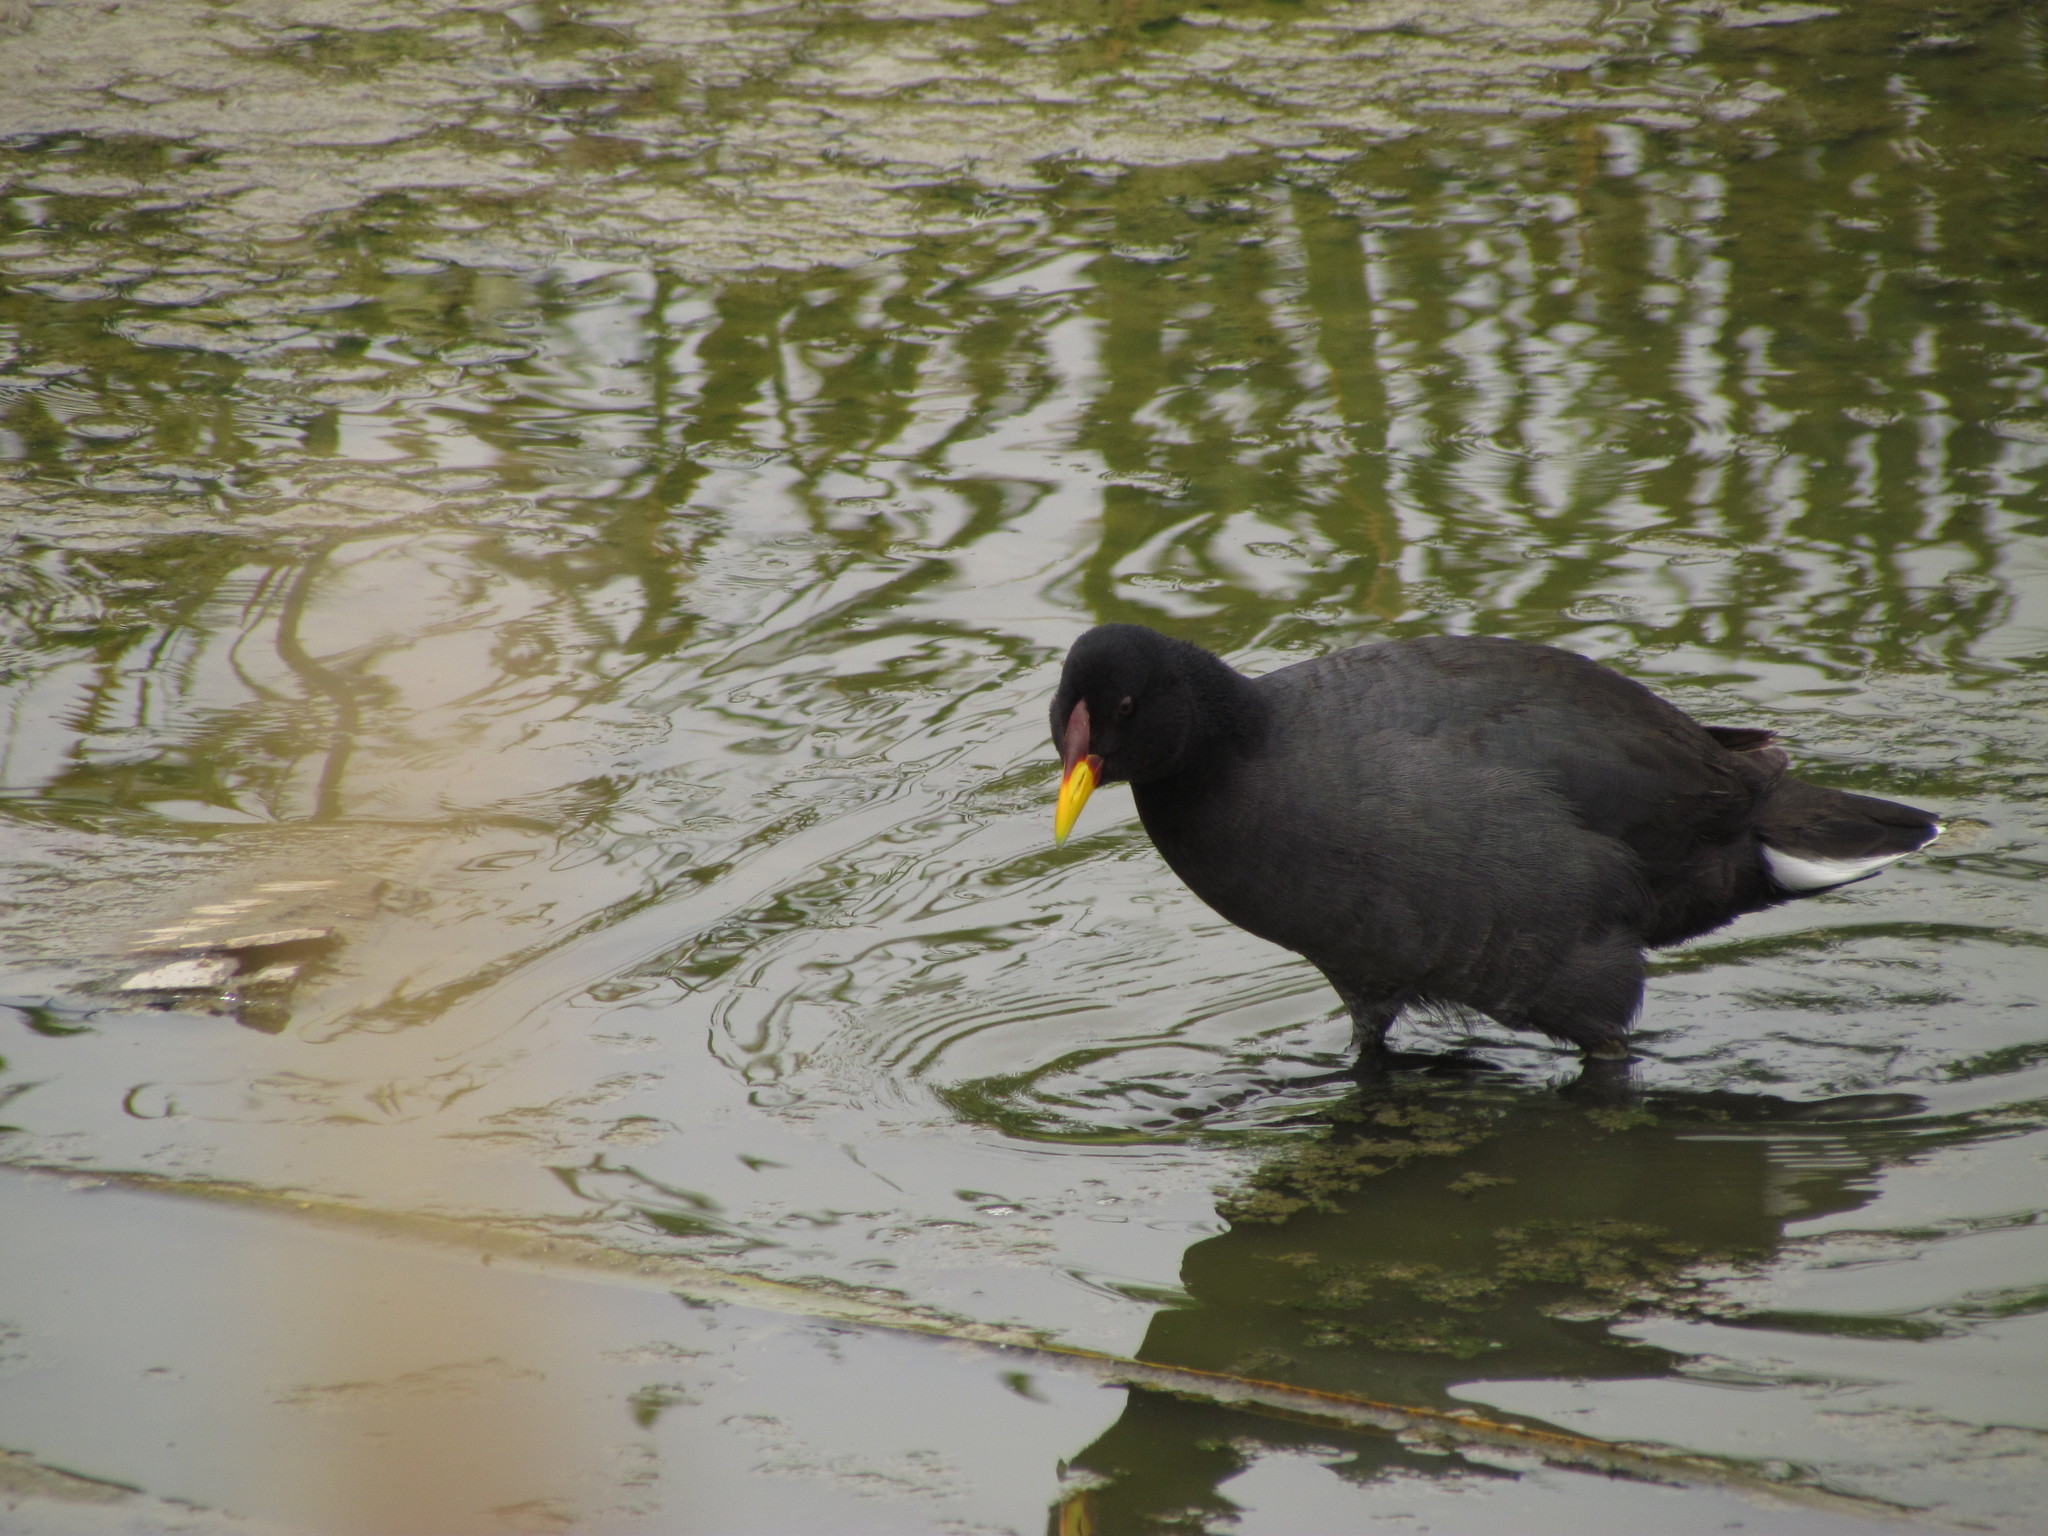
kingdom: Animalia
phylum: Chordata
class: Aves
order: Gruiformes
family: Rallidae
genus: Fulica
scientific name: Fulica rufifrons
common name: Red-fronted coot
